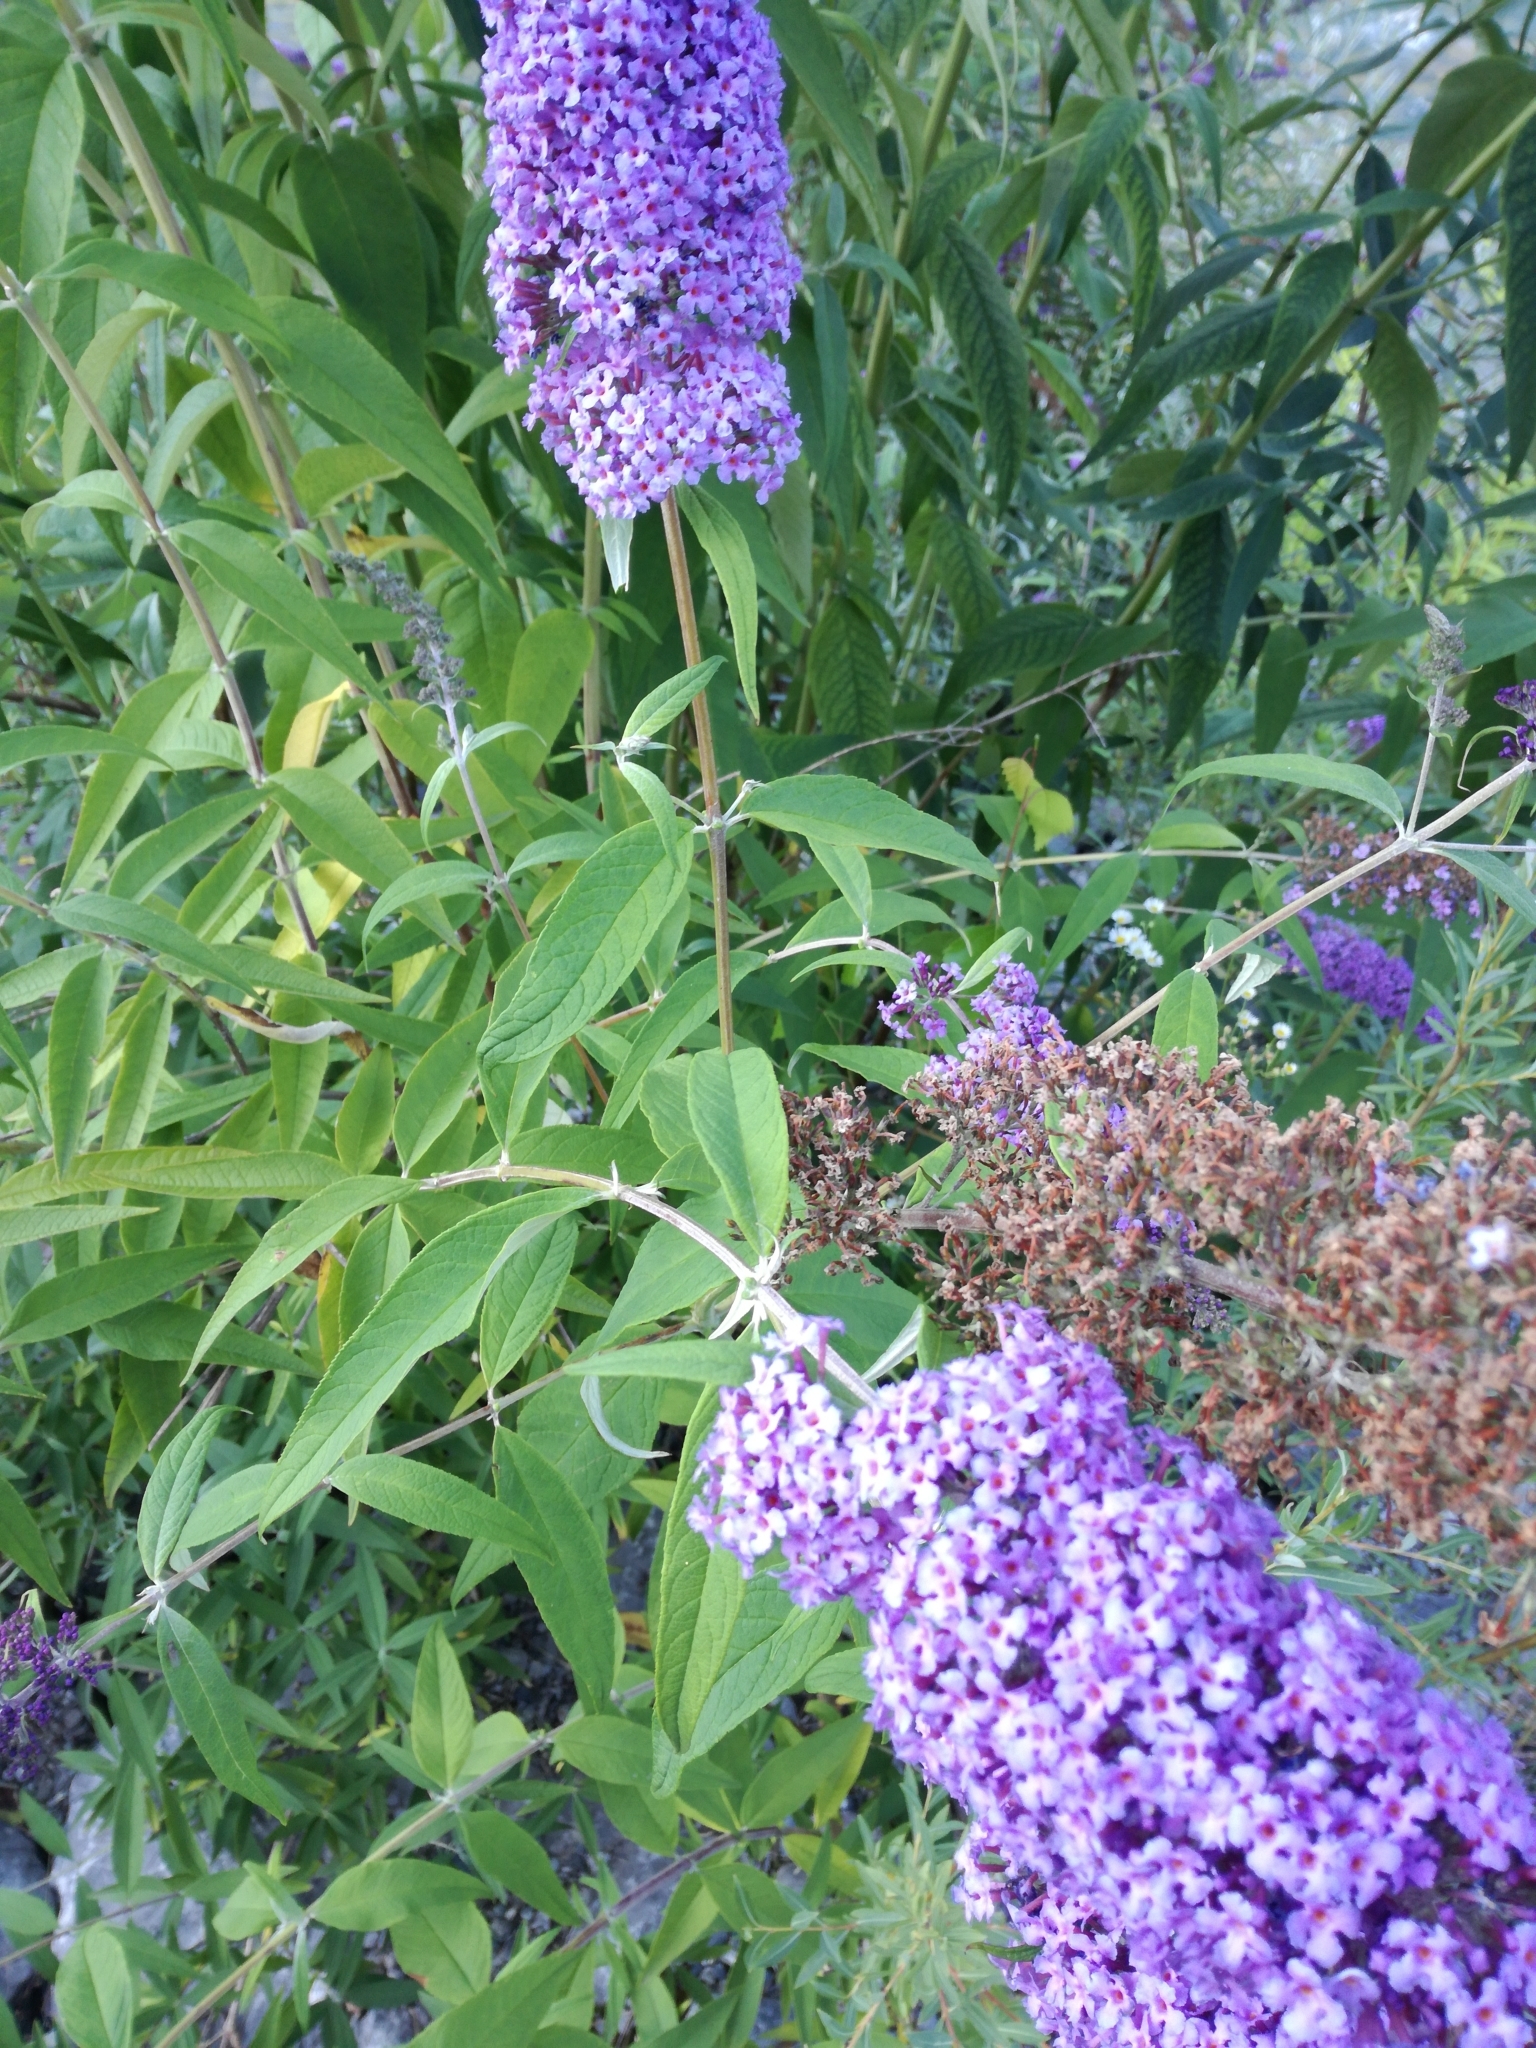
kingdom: Plantae
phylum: Tracheophyta
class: Magnoliopsida
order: Lamiales
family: Scrophulariaceae
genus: Buddleja
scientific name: Buddleja davidii
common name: Butterfly-bush
